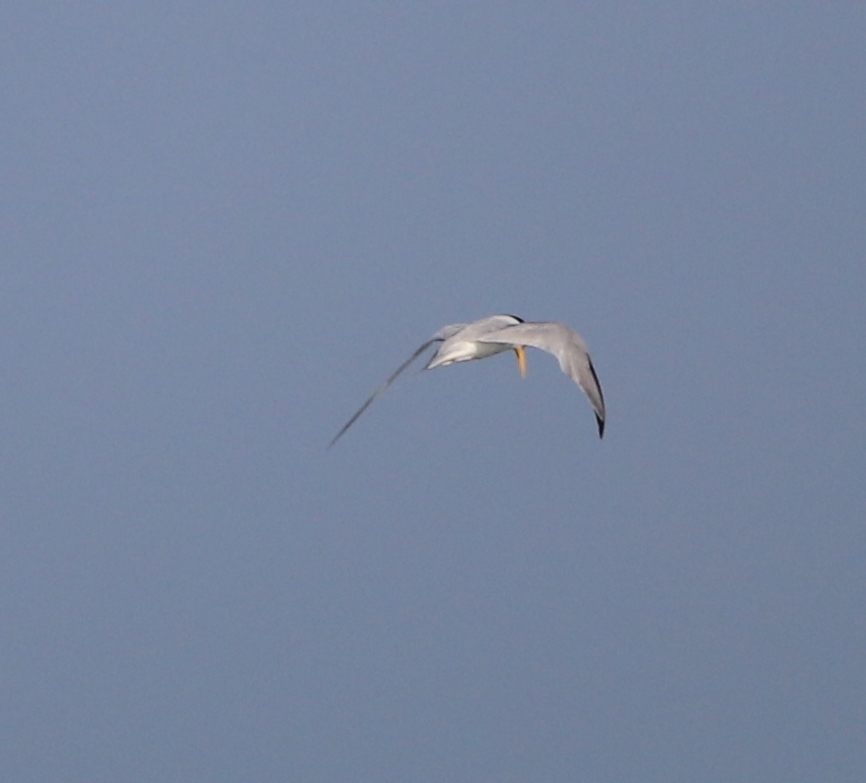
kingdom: Animalia
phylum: Chordata
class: Aves
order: Charadriiformes
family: Laridae
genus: Sternula
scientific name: Sternula antillarum
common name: Least tern
